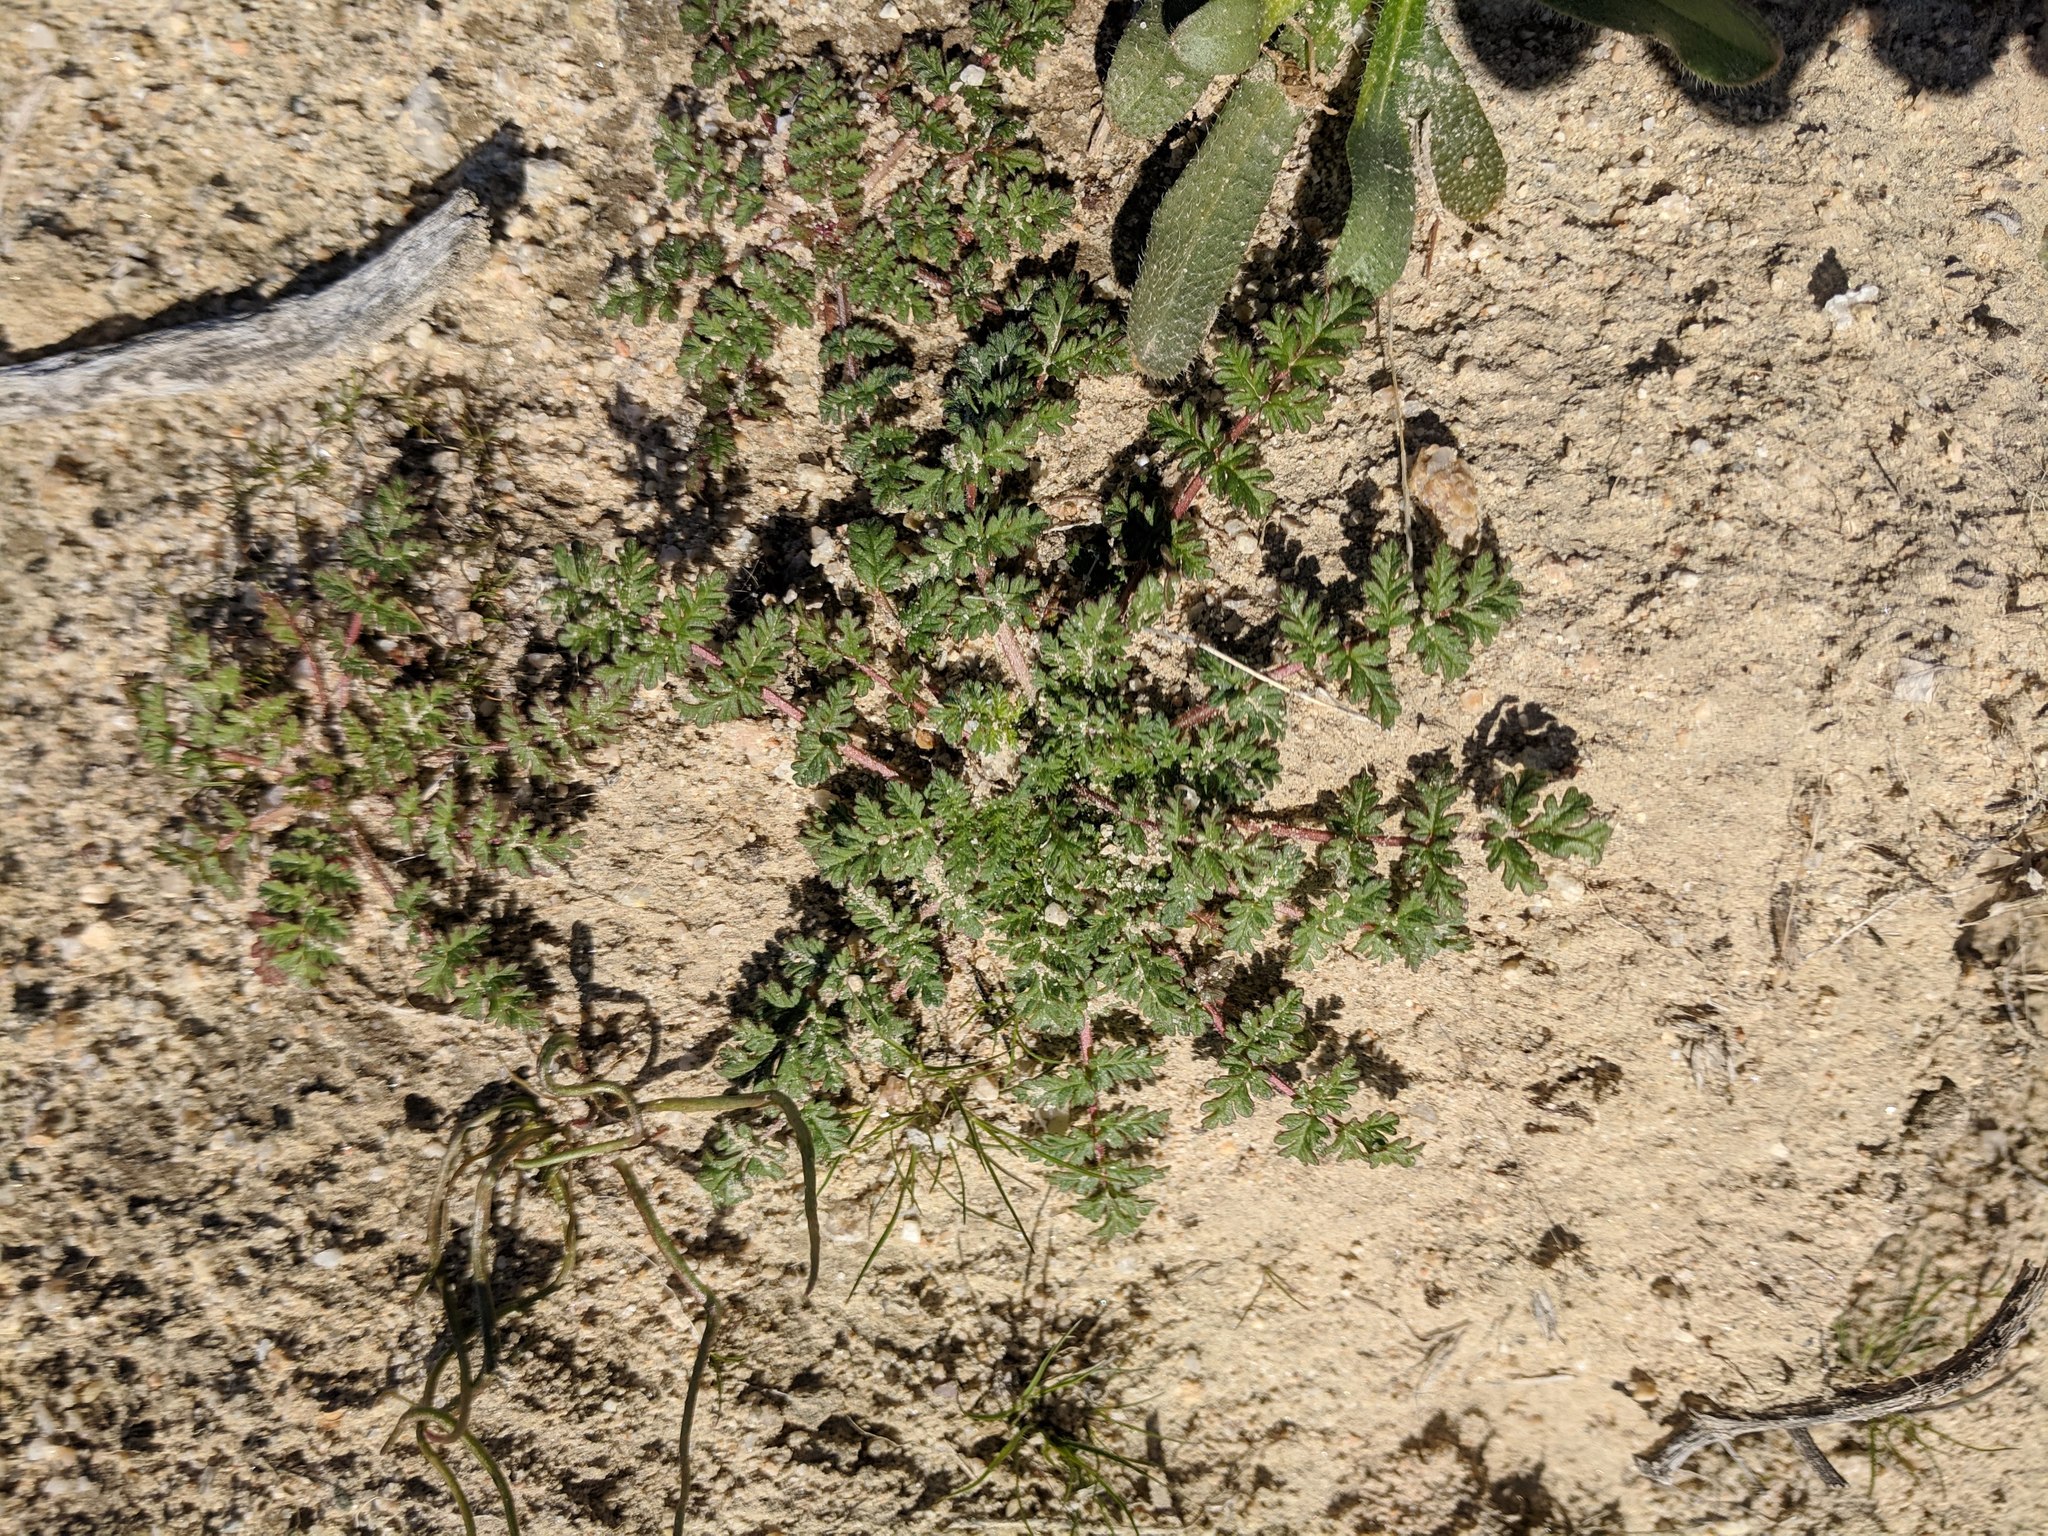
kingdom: Plantae
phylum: Tracheophyta
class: Magnoliopsida
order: Geraniales
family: Geraniaceae
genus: Erodium
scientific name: Erodium cicutarium
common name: Common stork's-bill
